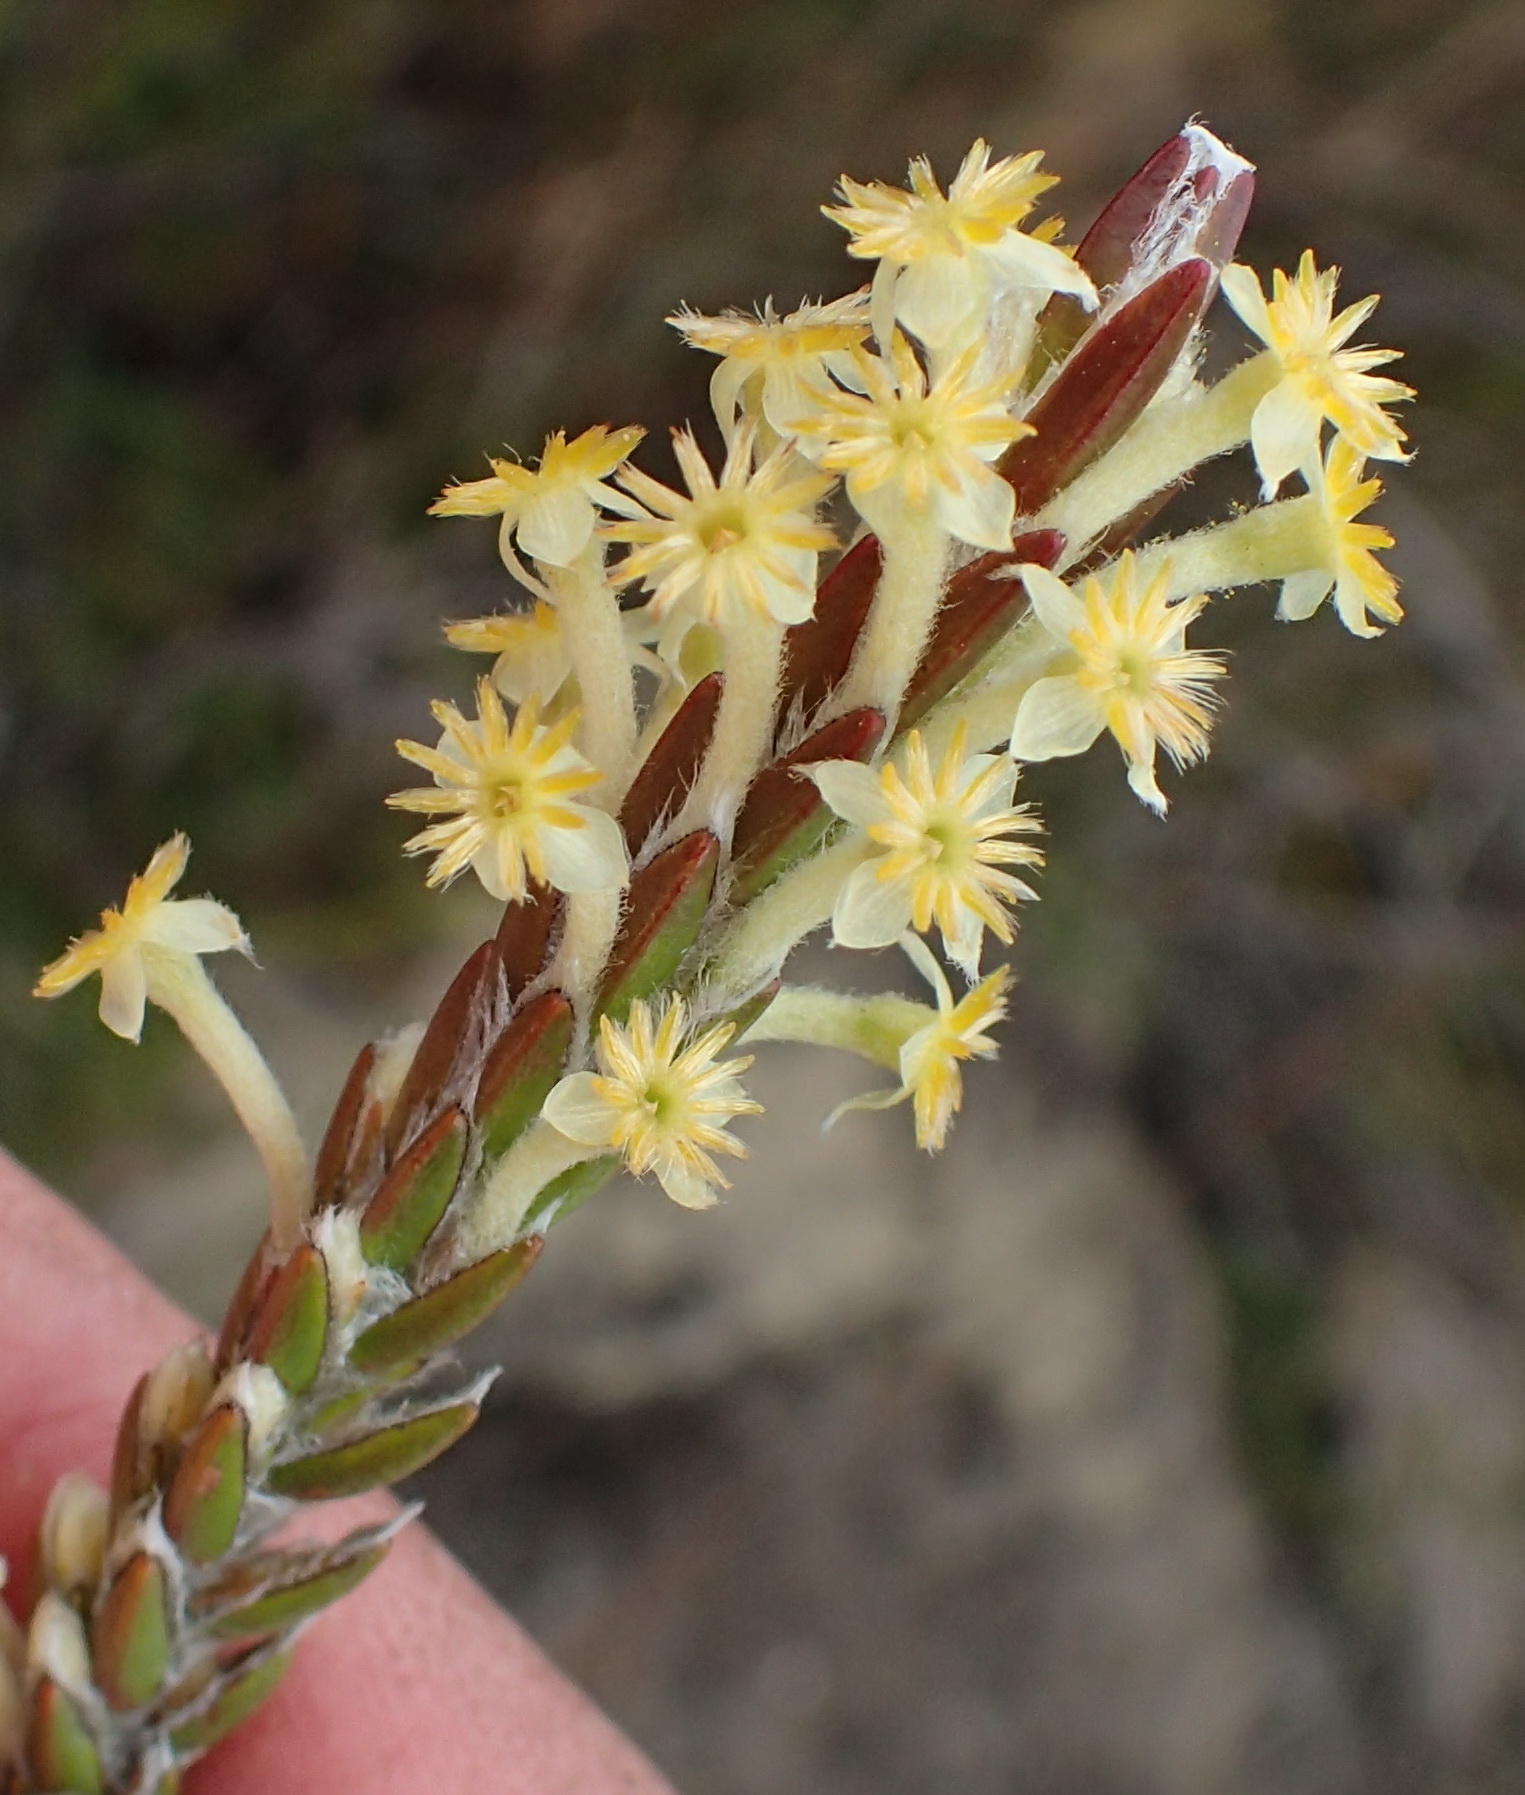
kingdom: Plantae
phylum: Tracheophyta
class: Magnoliopsida
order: Malvales
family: Thymelaeaceae
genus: Struthiola
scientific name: Struthiola fasciata
